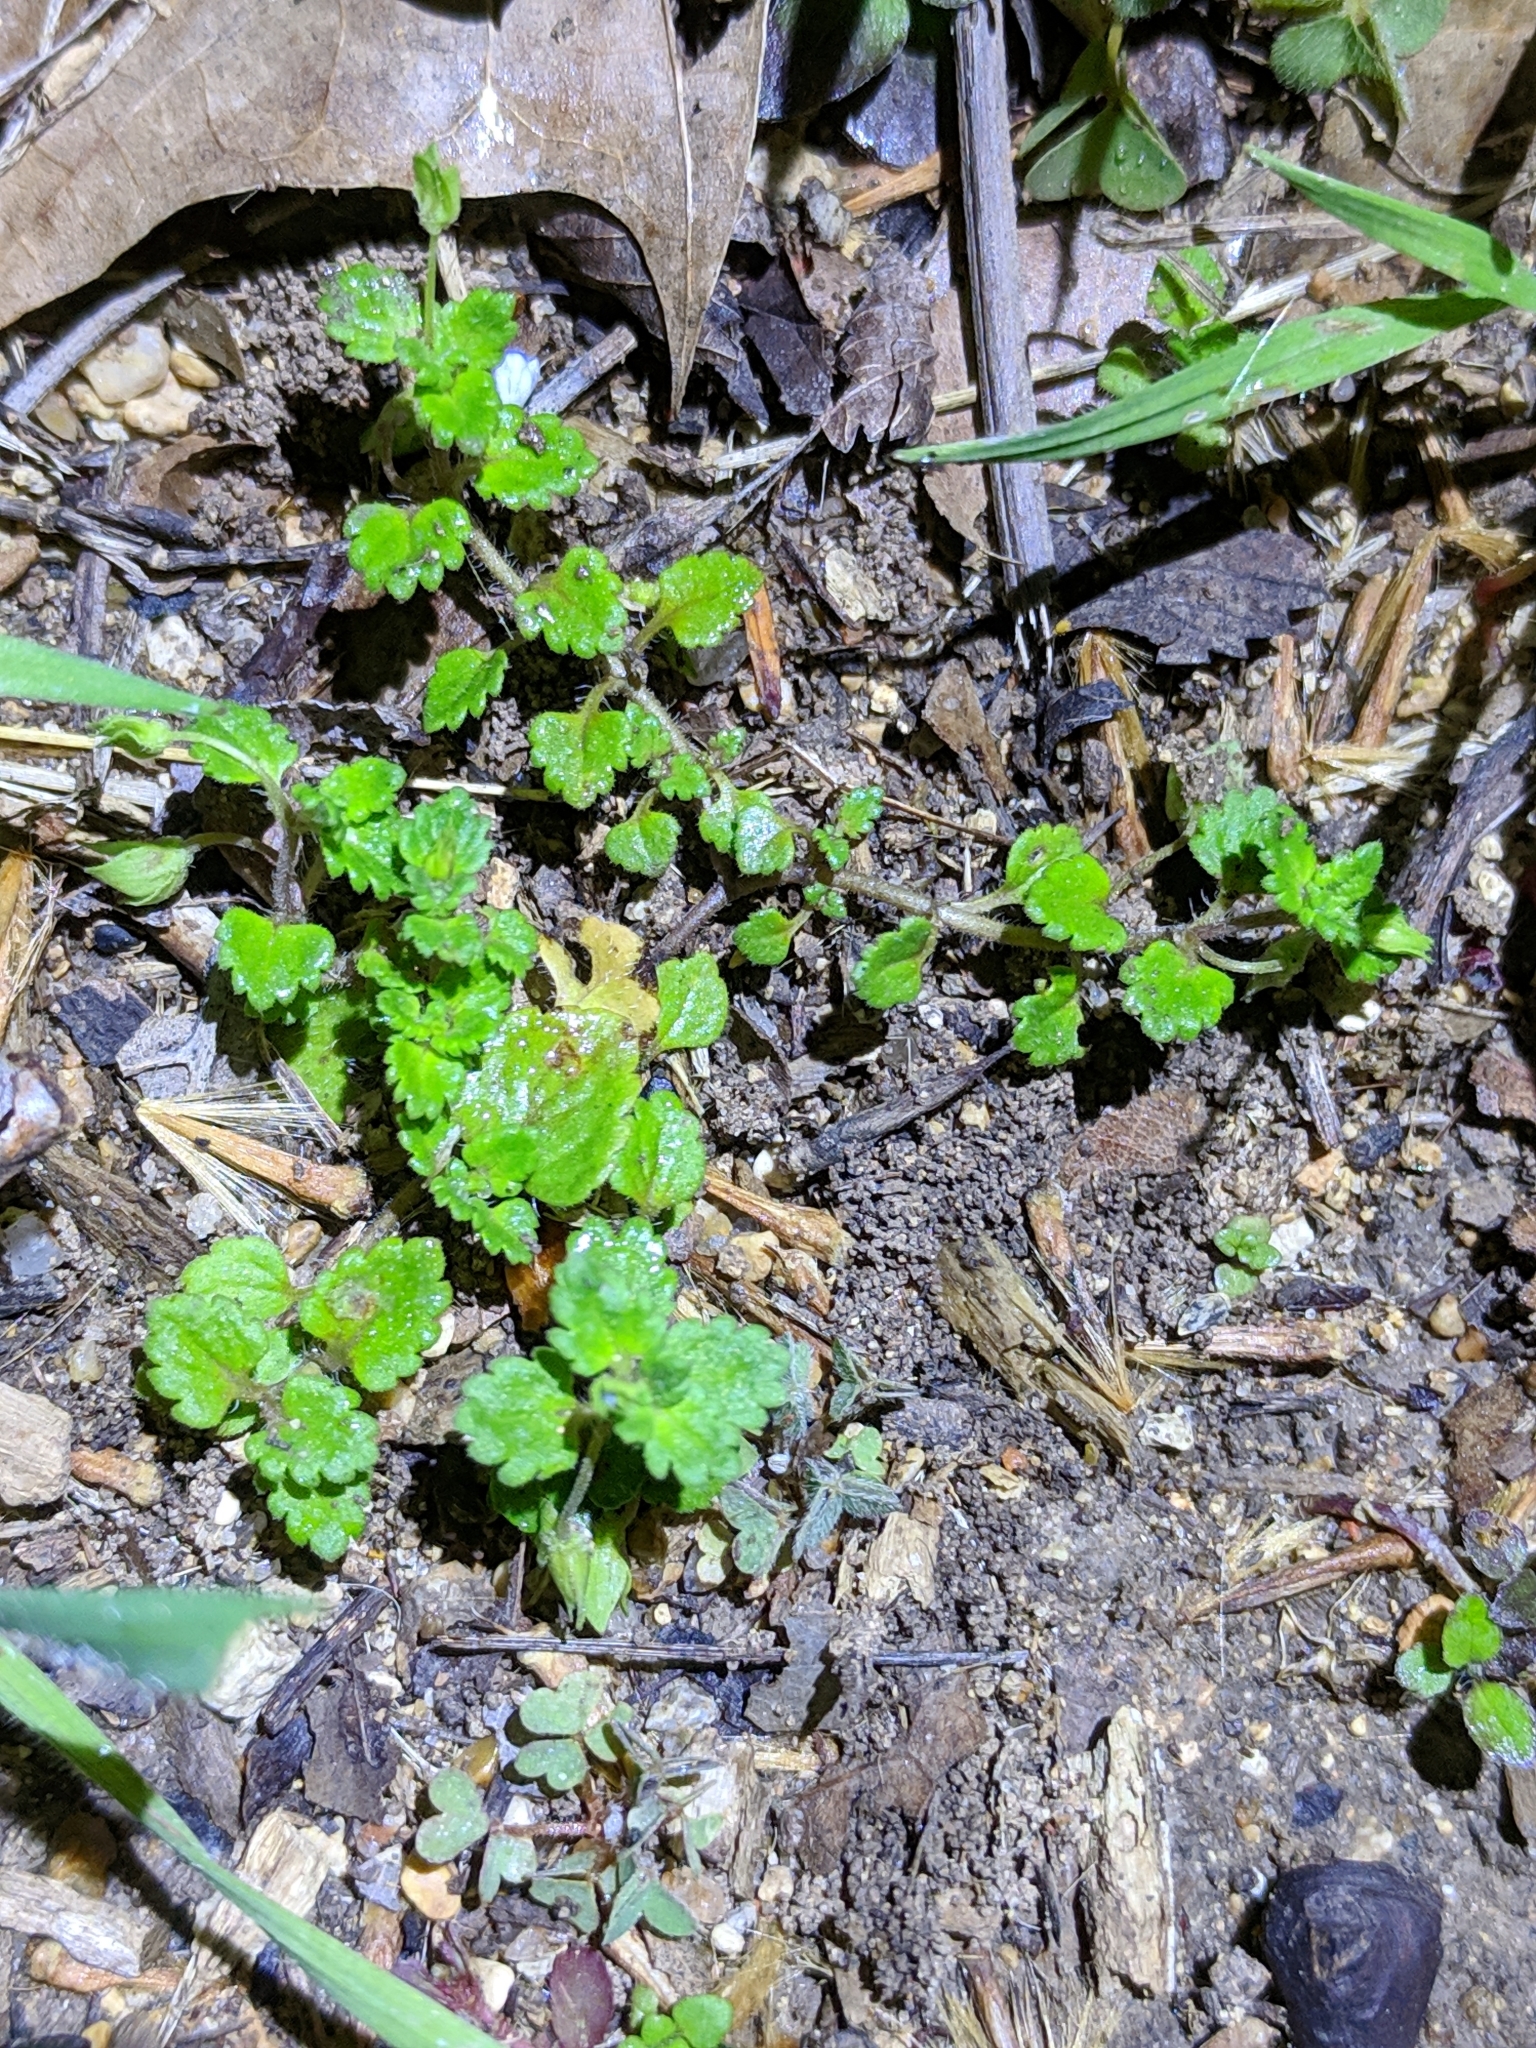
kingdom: Plantae
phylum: Tracheophyta
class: Magnoliopsida
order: Lamiales
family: Plantaginaceae
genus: Veronica
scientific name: Veronica polita
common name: Grey field-speedwell
